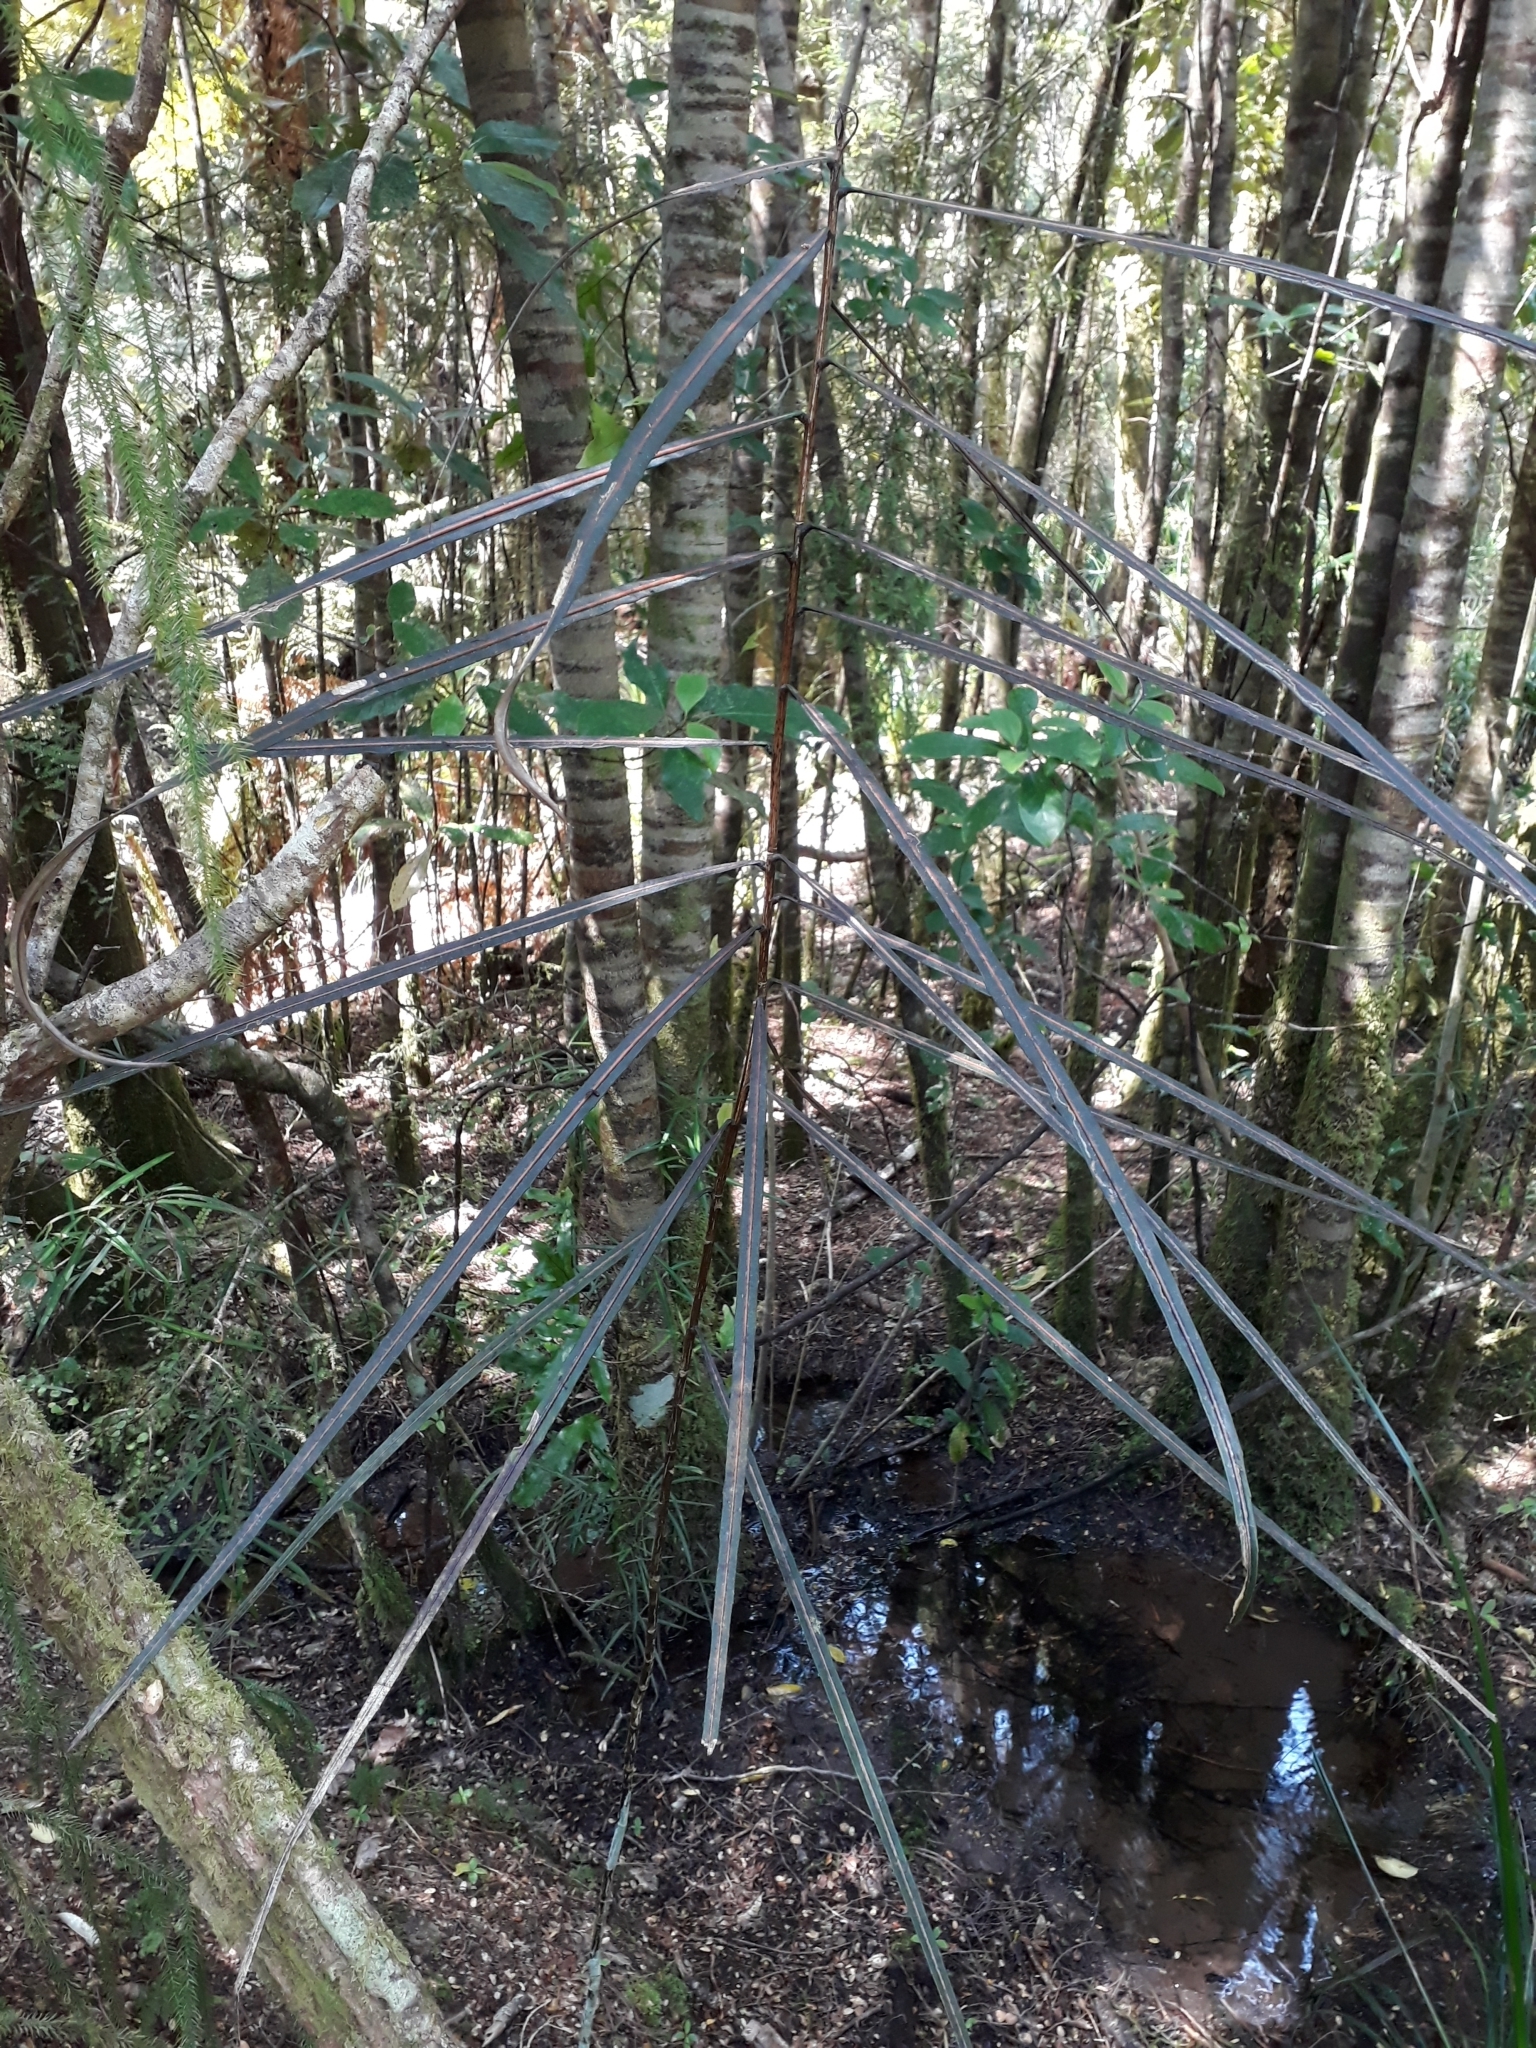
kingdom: Plantae
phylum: Tracheophyta
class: Magnoliopsida
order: Apiales
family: Araliaceae
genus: Pseudopanax
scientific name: Pseudopanax crassifolius
